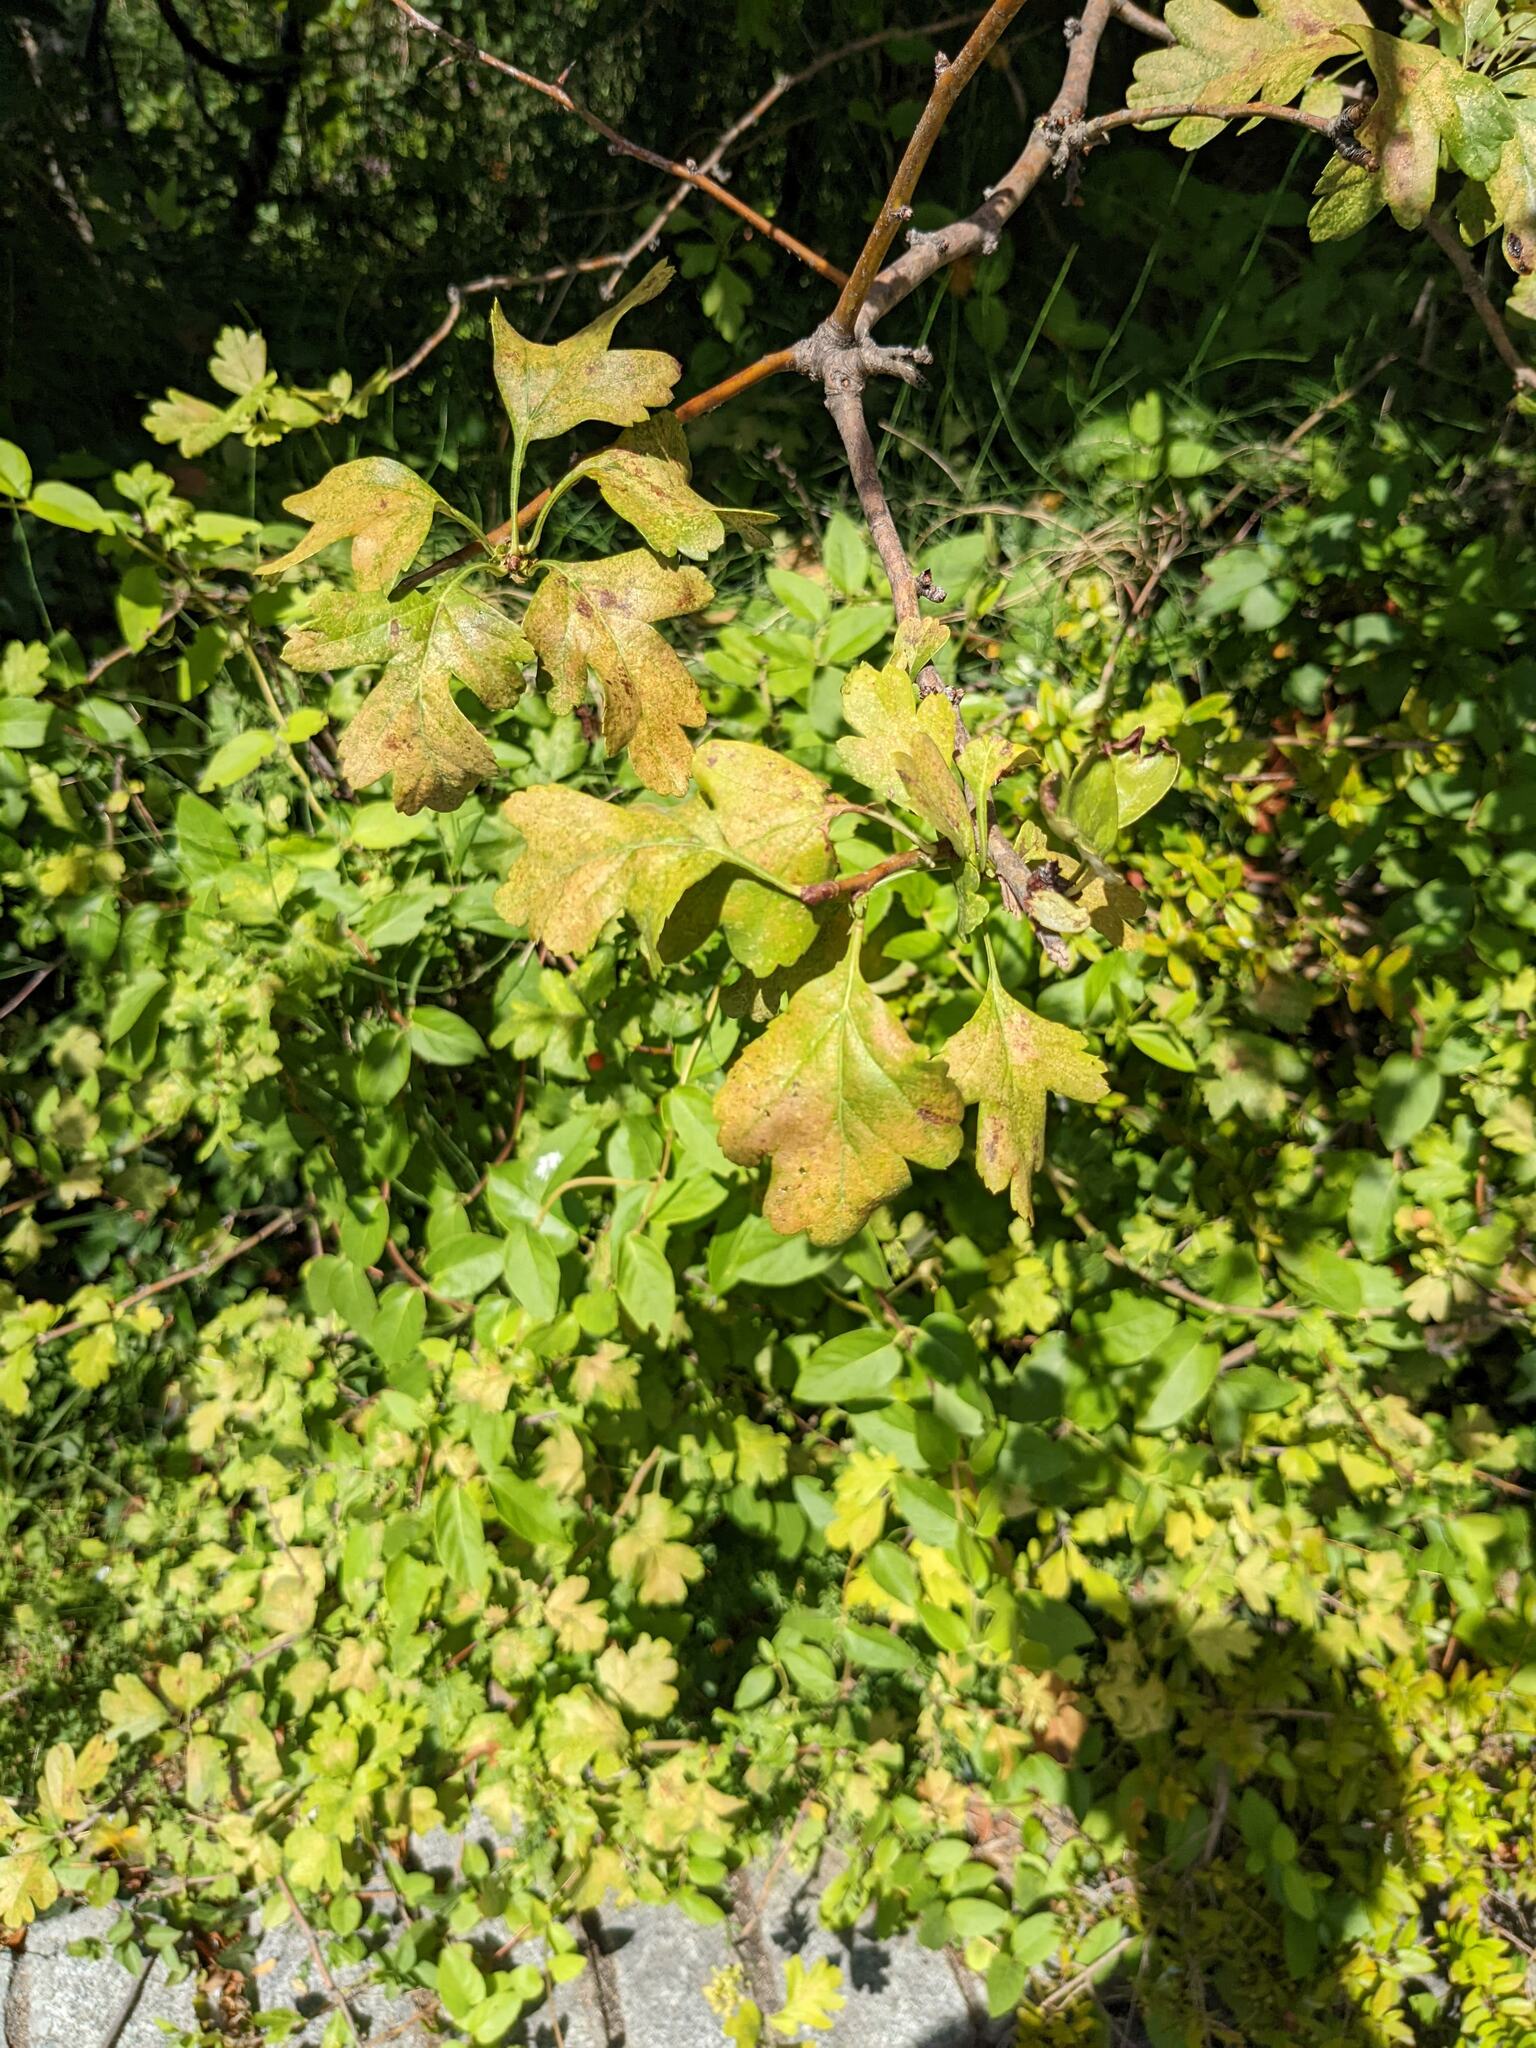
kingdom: Plantae
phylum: Tracheophyta
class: Magnoliopsida
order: Rosales
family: Rosaceae
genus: Crataegus
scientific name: Crataegus monogyna
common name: Hawthorn
